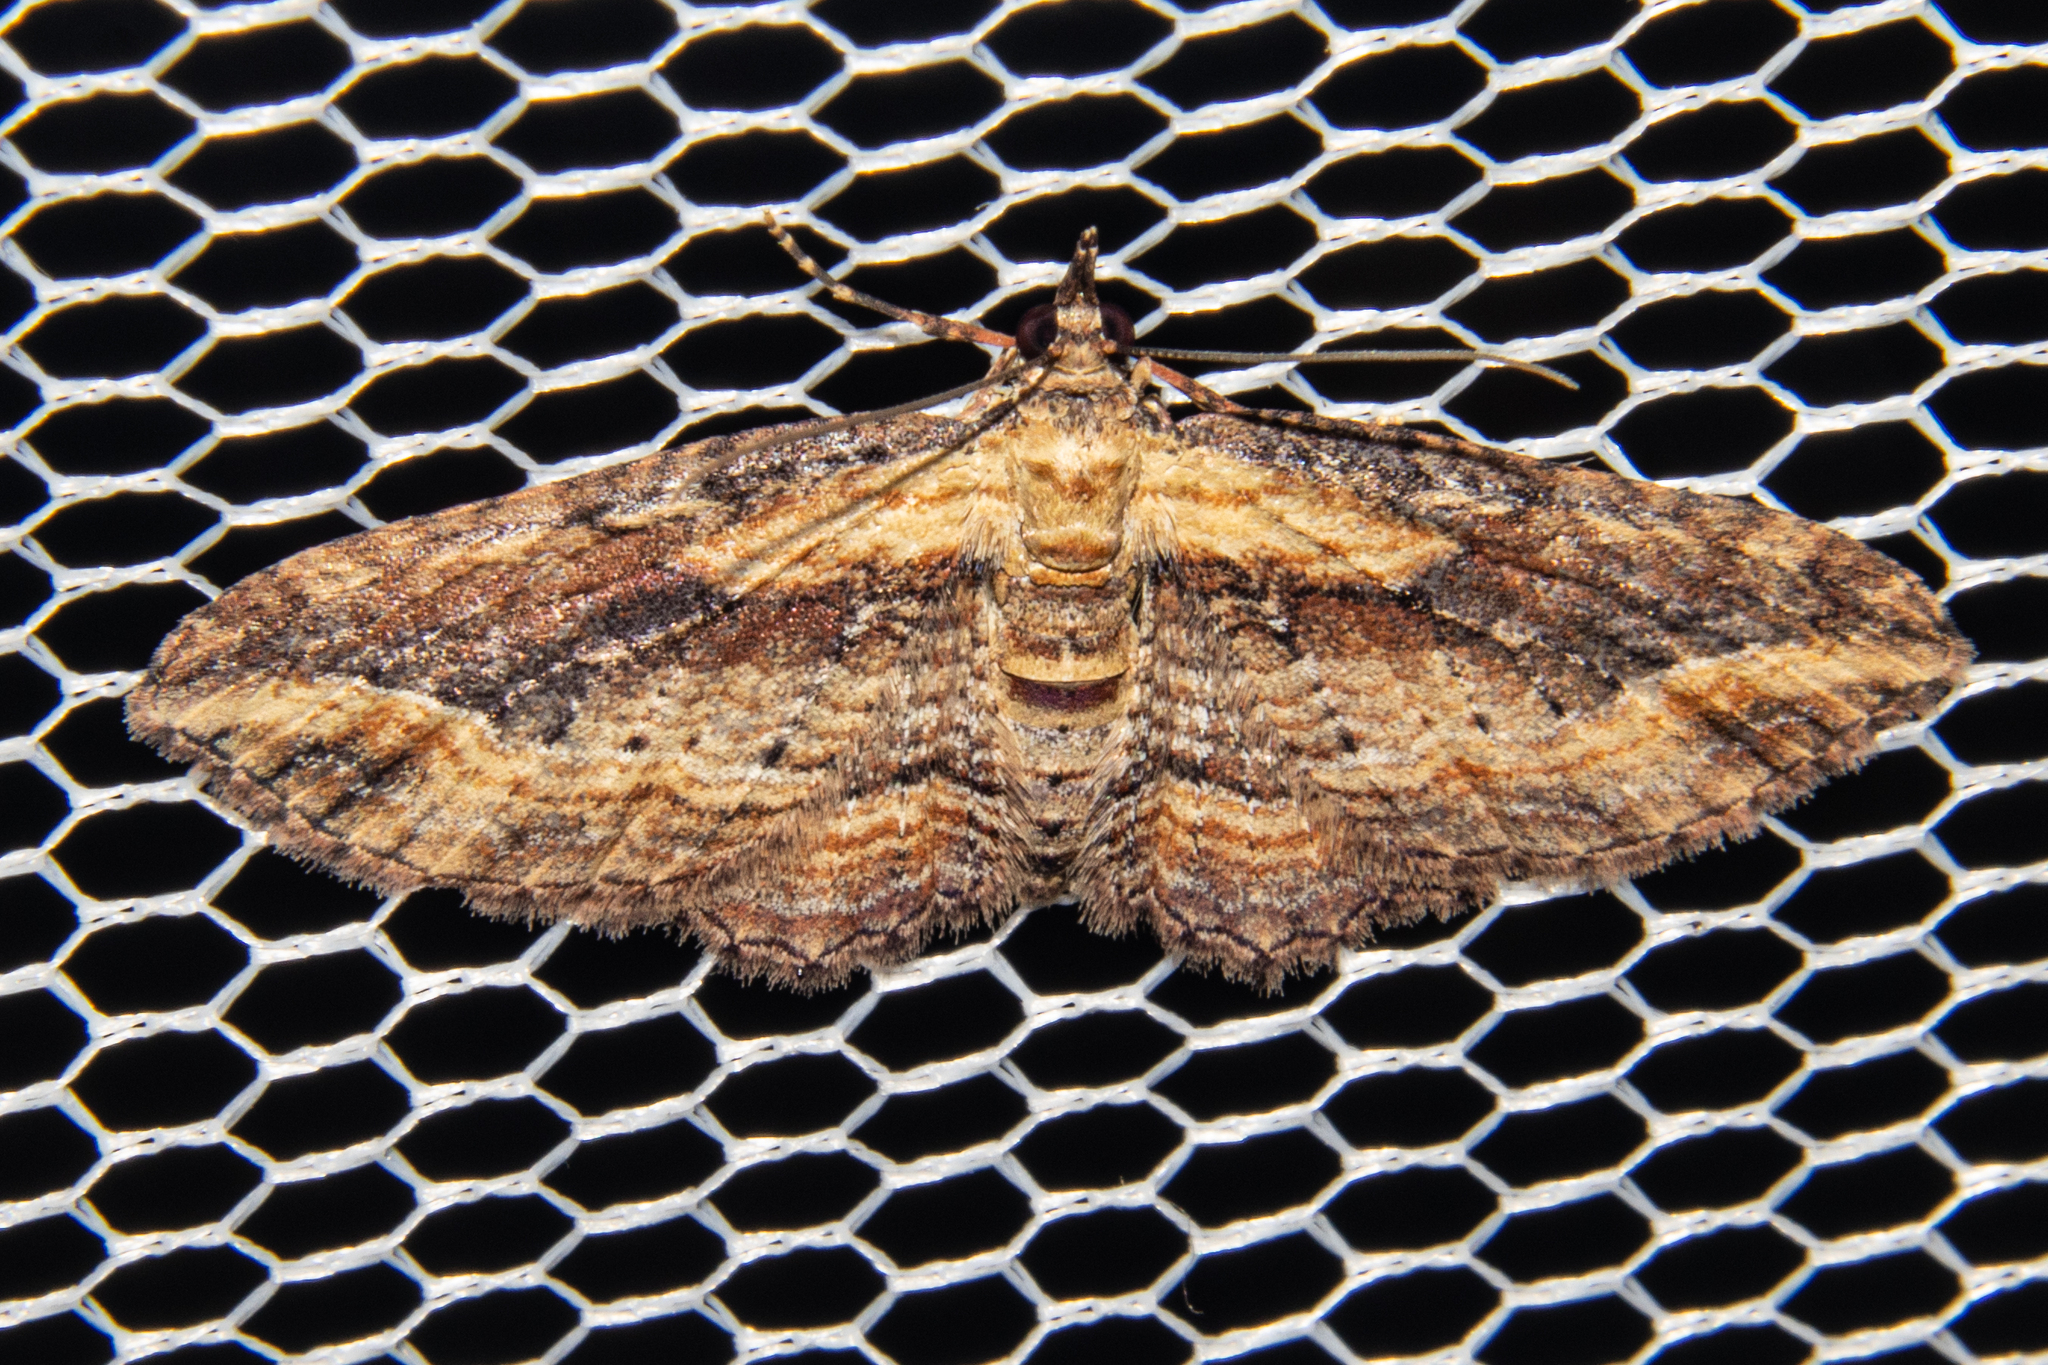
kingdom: Animalia
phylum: Arthropoda
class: Insecta
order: Lepidoptera
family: Geometridae
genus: Chloroclystis
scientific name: Chloroclystis filata
